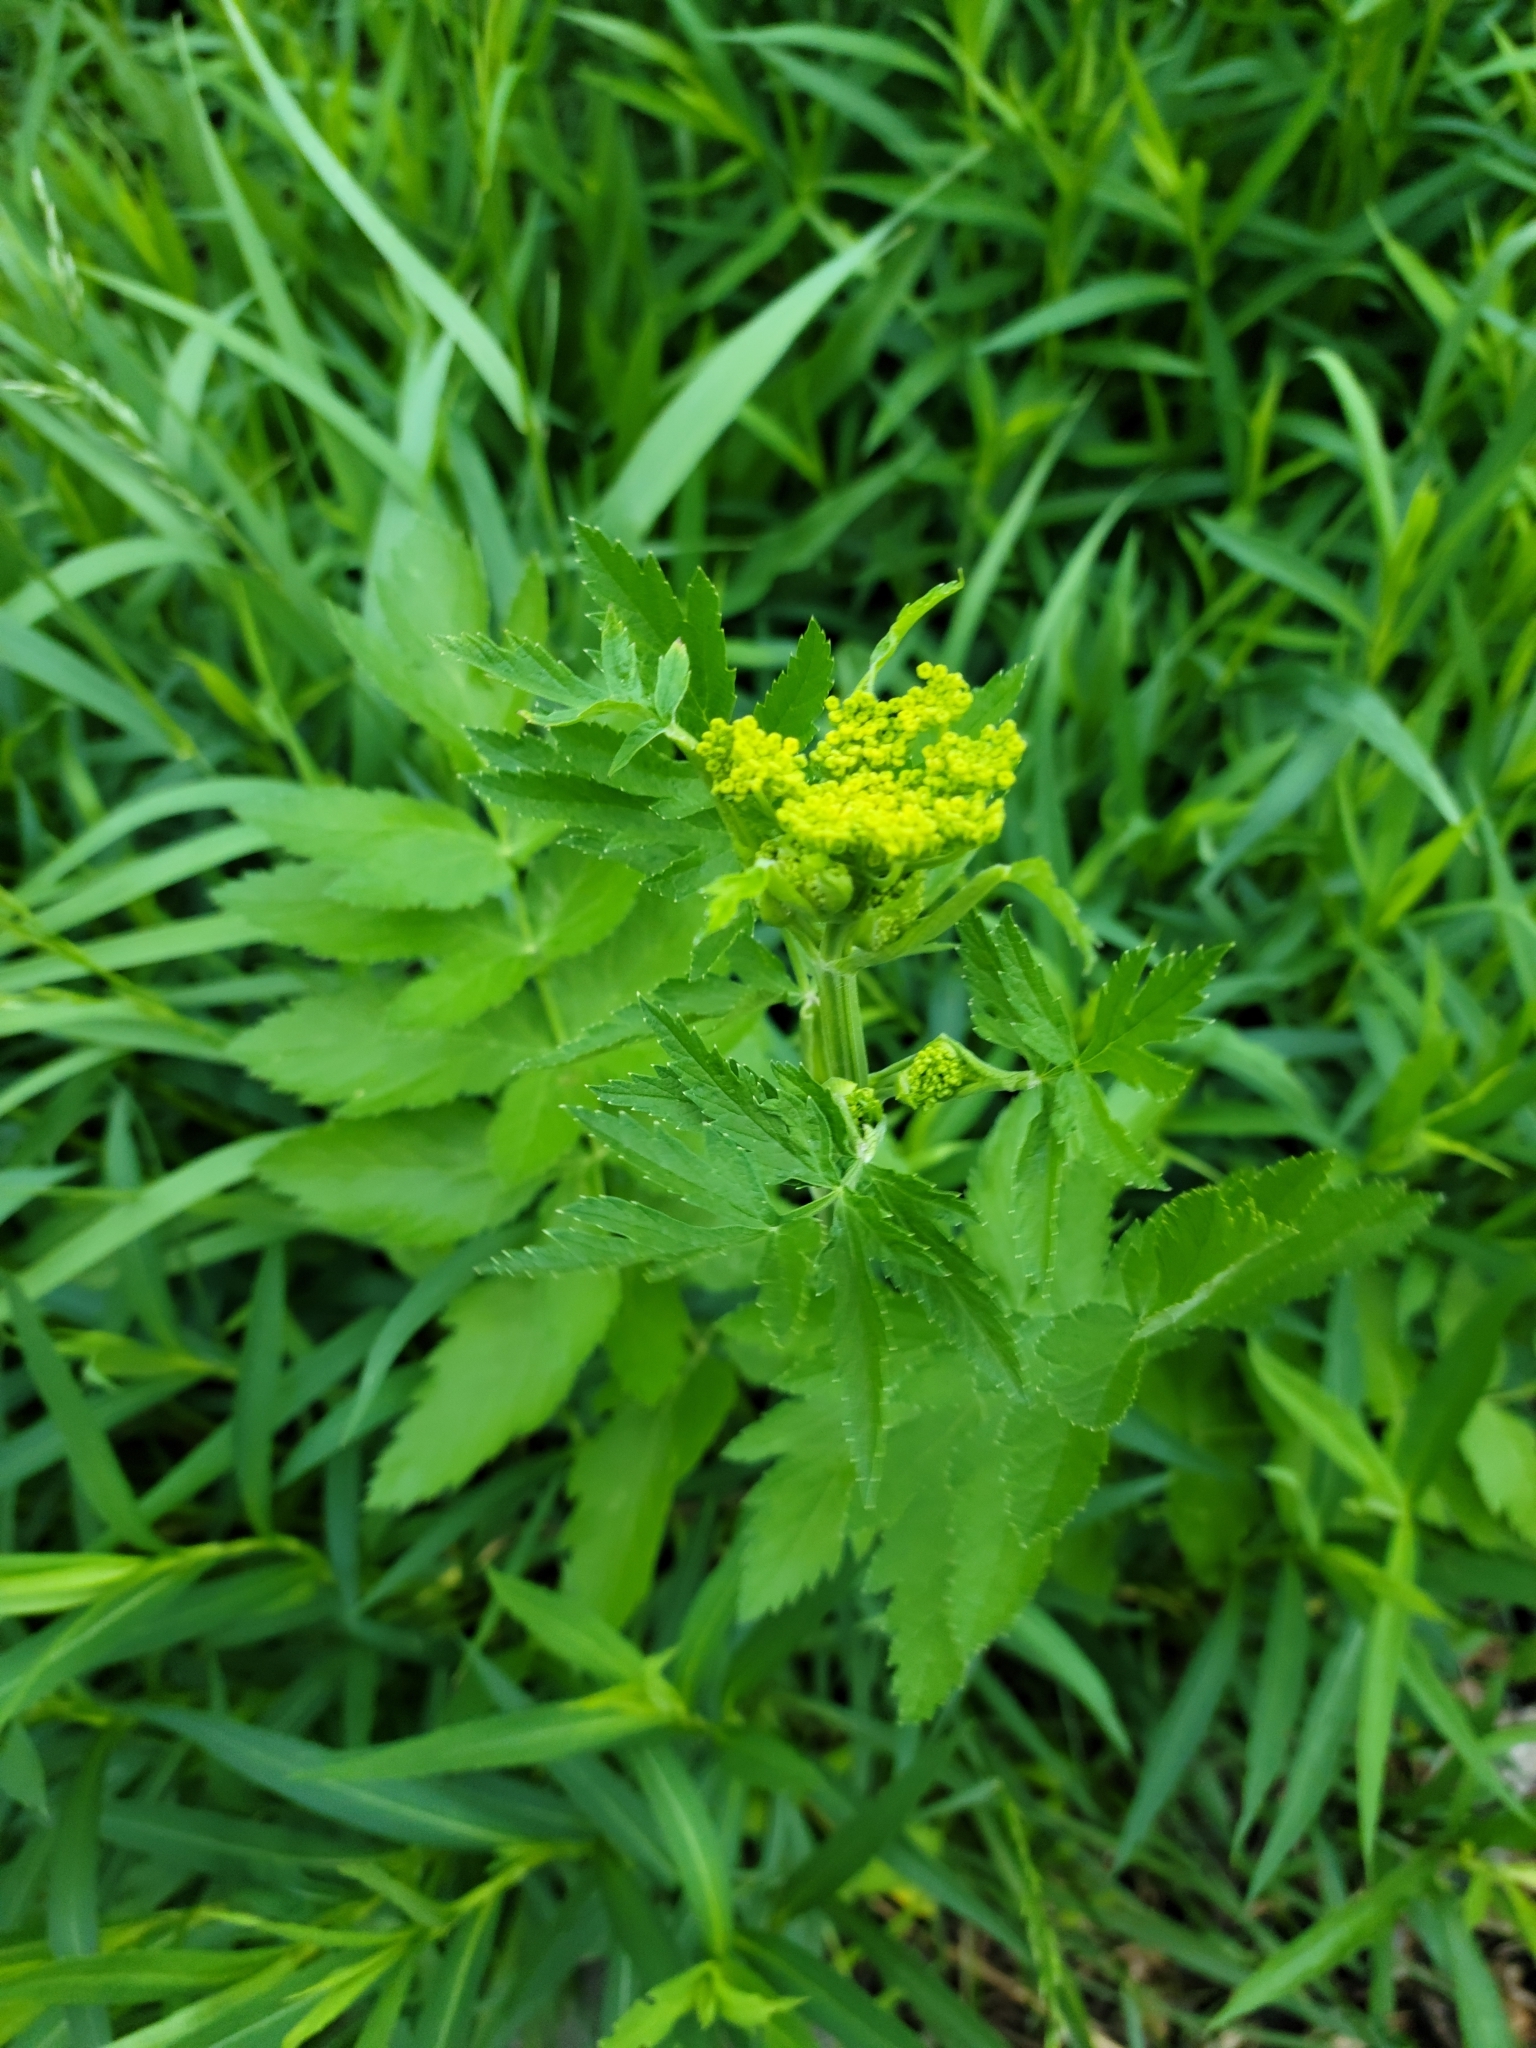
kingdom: Plantae
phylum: Tracheophyta
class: Magnoliopsida
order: Apiales
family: Apiaceae
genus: Pastinaca
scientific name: Pastinaca sativa
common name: Wild parsnip
